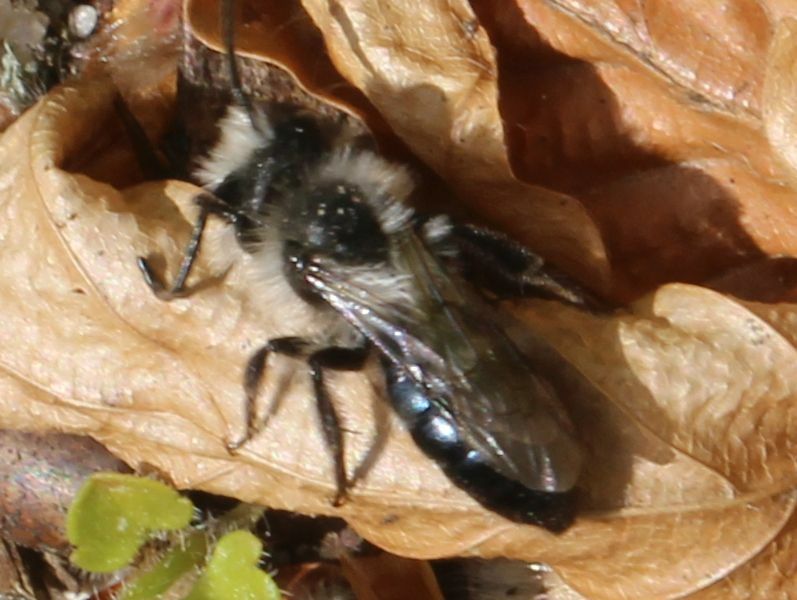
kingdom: Animalia
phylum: Arthropoda
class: Insecta
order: Hymenoptera
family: Andrenidae
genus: Andrena
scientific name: Andrena cineraria
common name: Ashy mining bee
